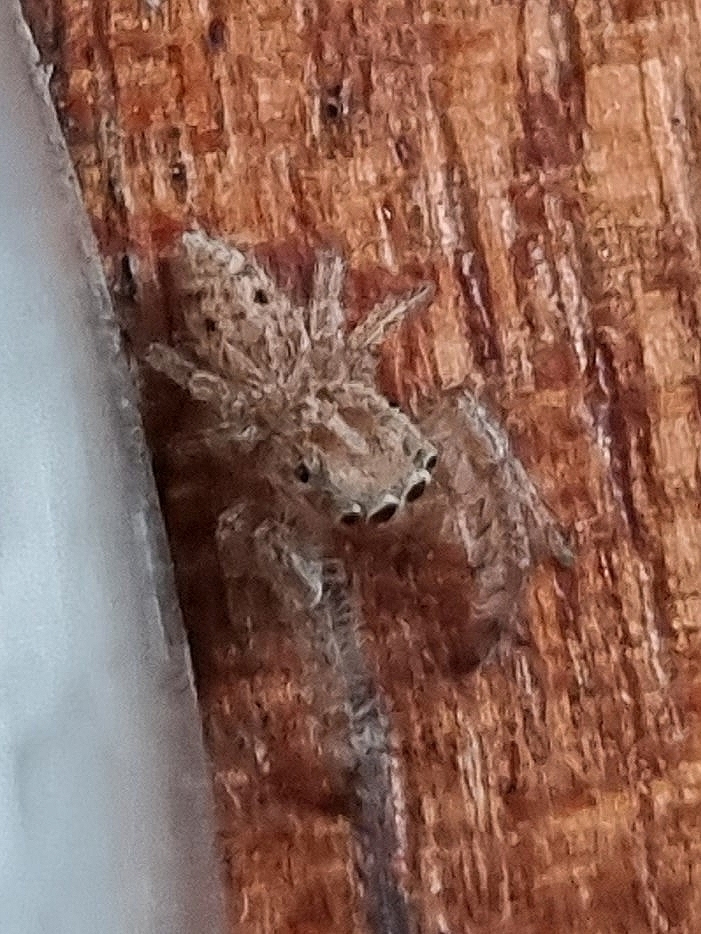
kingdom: Animalia
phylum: Arthropoda
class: Arachnida
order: Araneae
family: Salticidae
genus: Macaroeris
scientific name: Macaroeris cata
